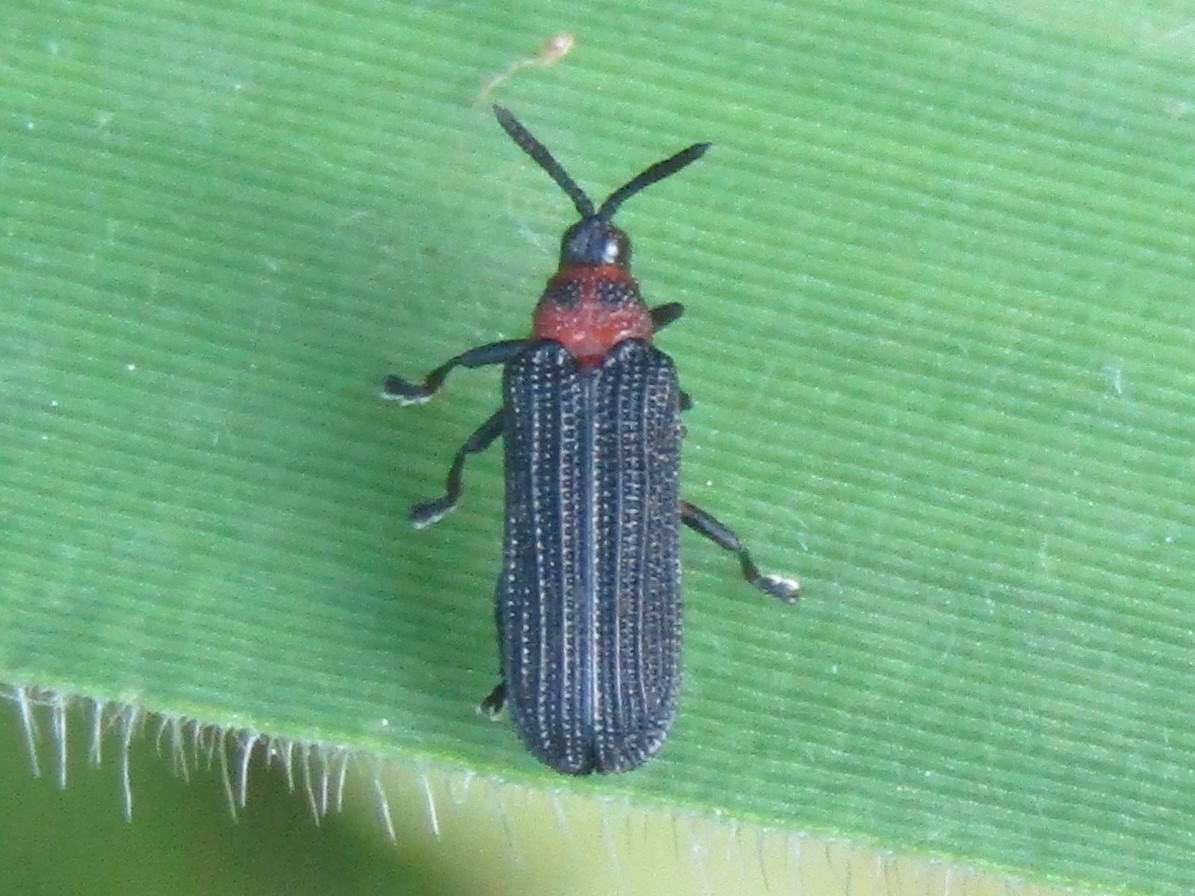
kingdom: Animalia
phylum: Arthropoda
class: Insecta
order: Coleoptera
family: Chrysomelidae
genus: Chalepus
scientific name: Chalepus bicolor
